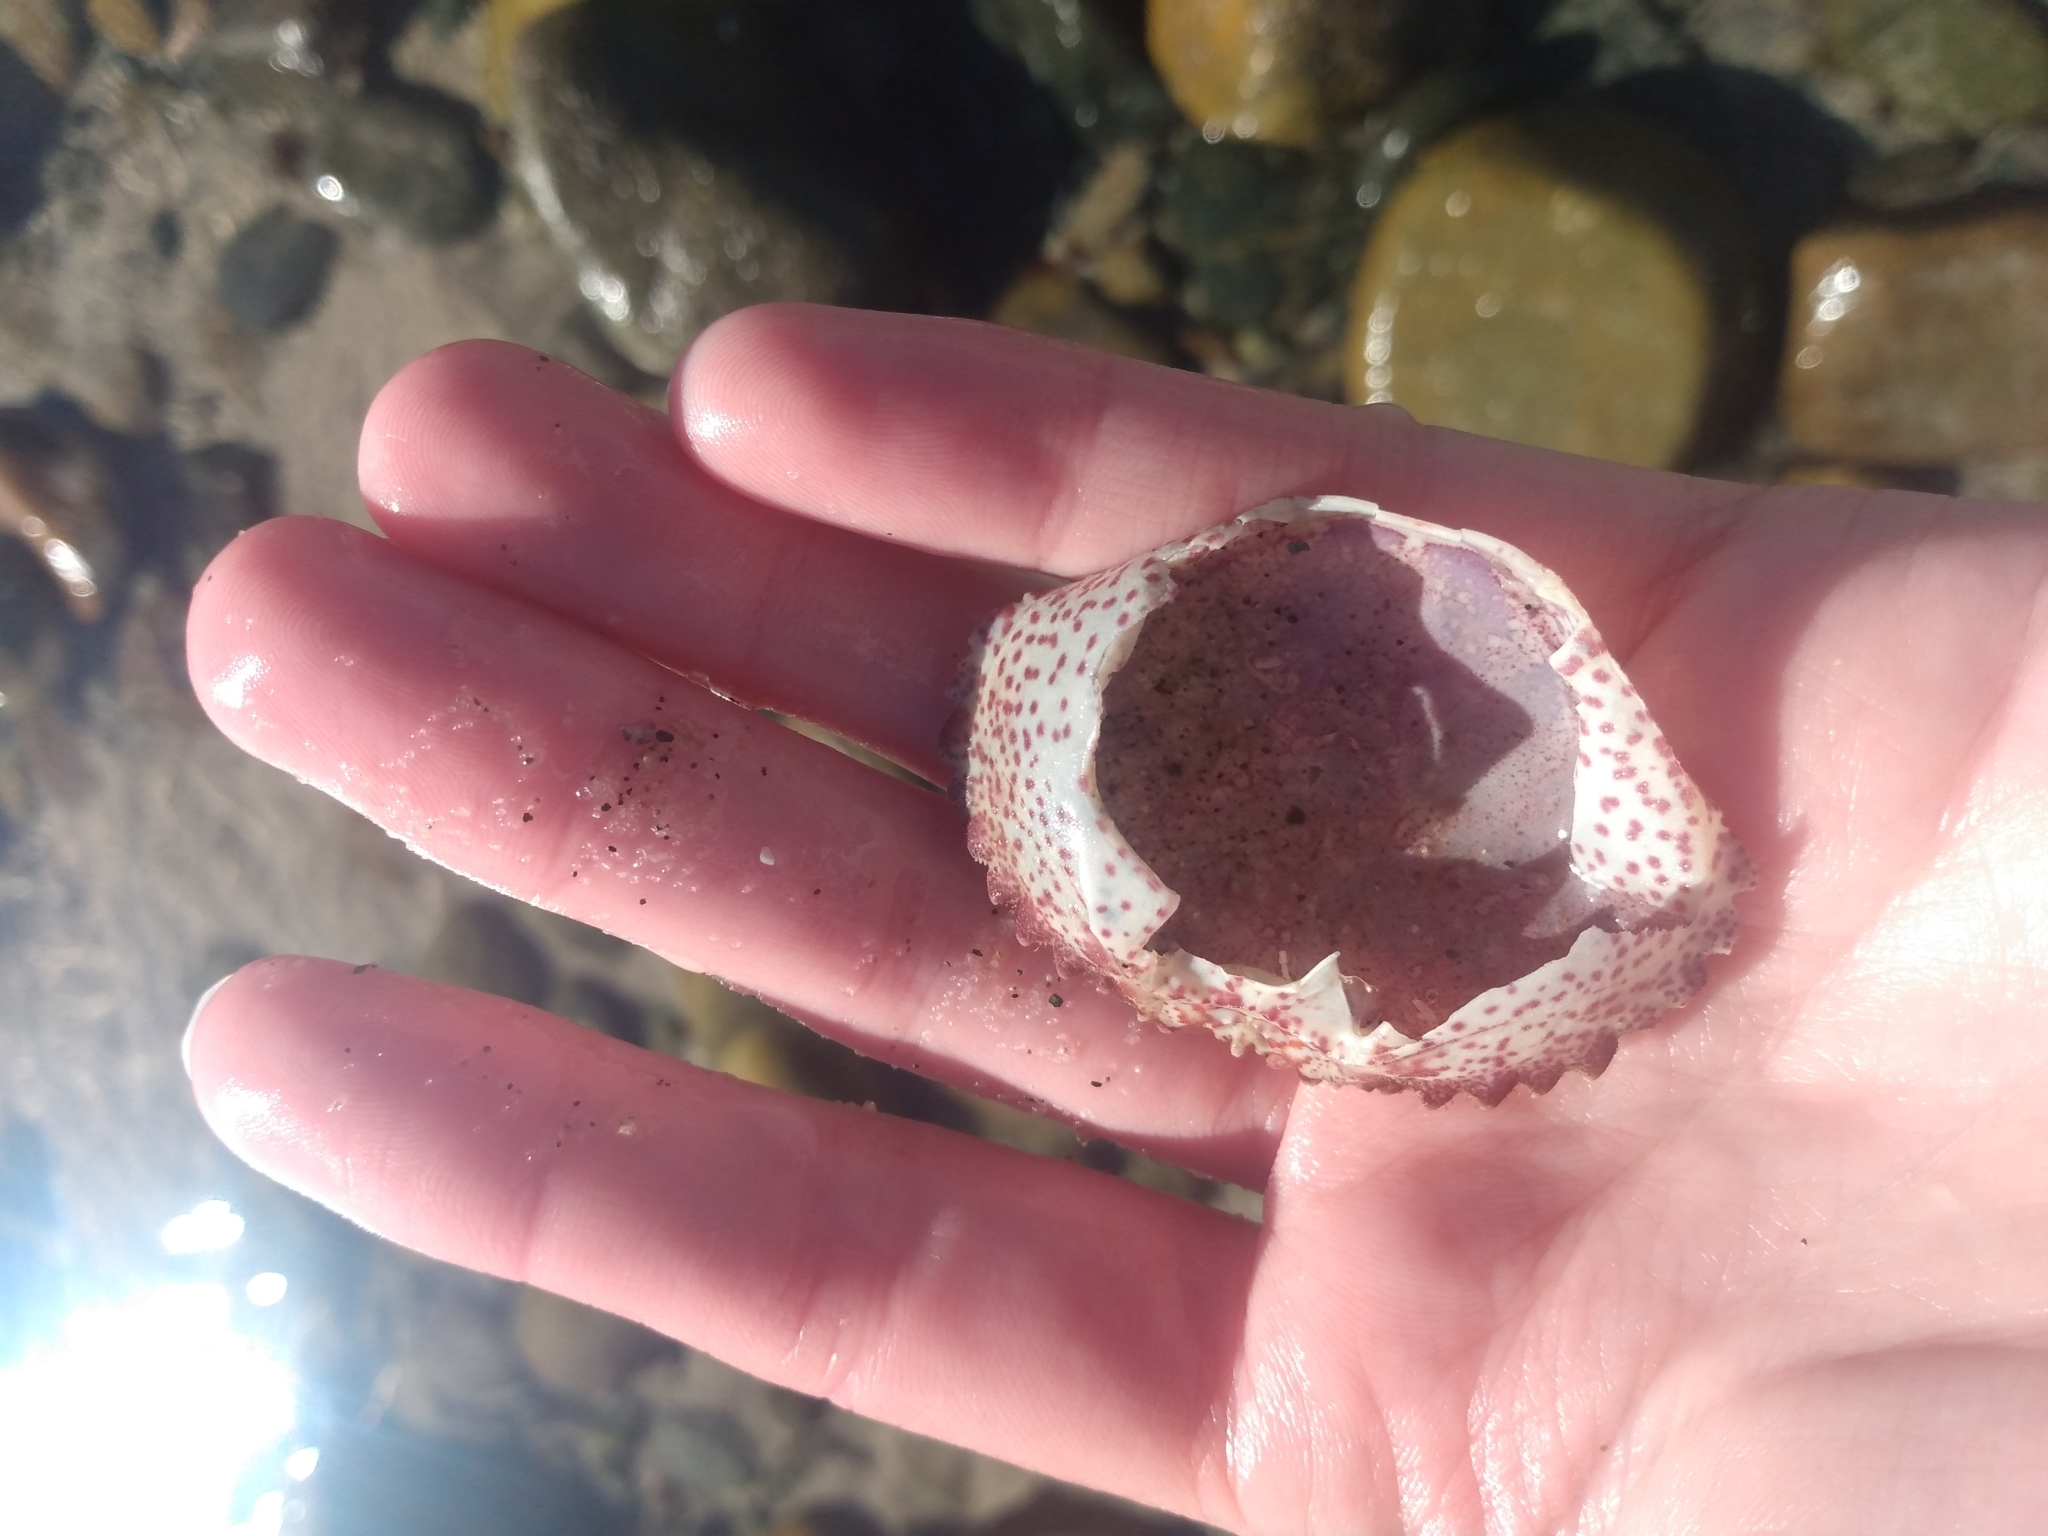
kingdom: Animalia
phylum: Arthropoda
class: Malacostraca
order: Decapoda
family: Cancridae
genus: Romaleon
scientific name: Romaleon antennarium
